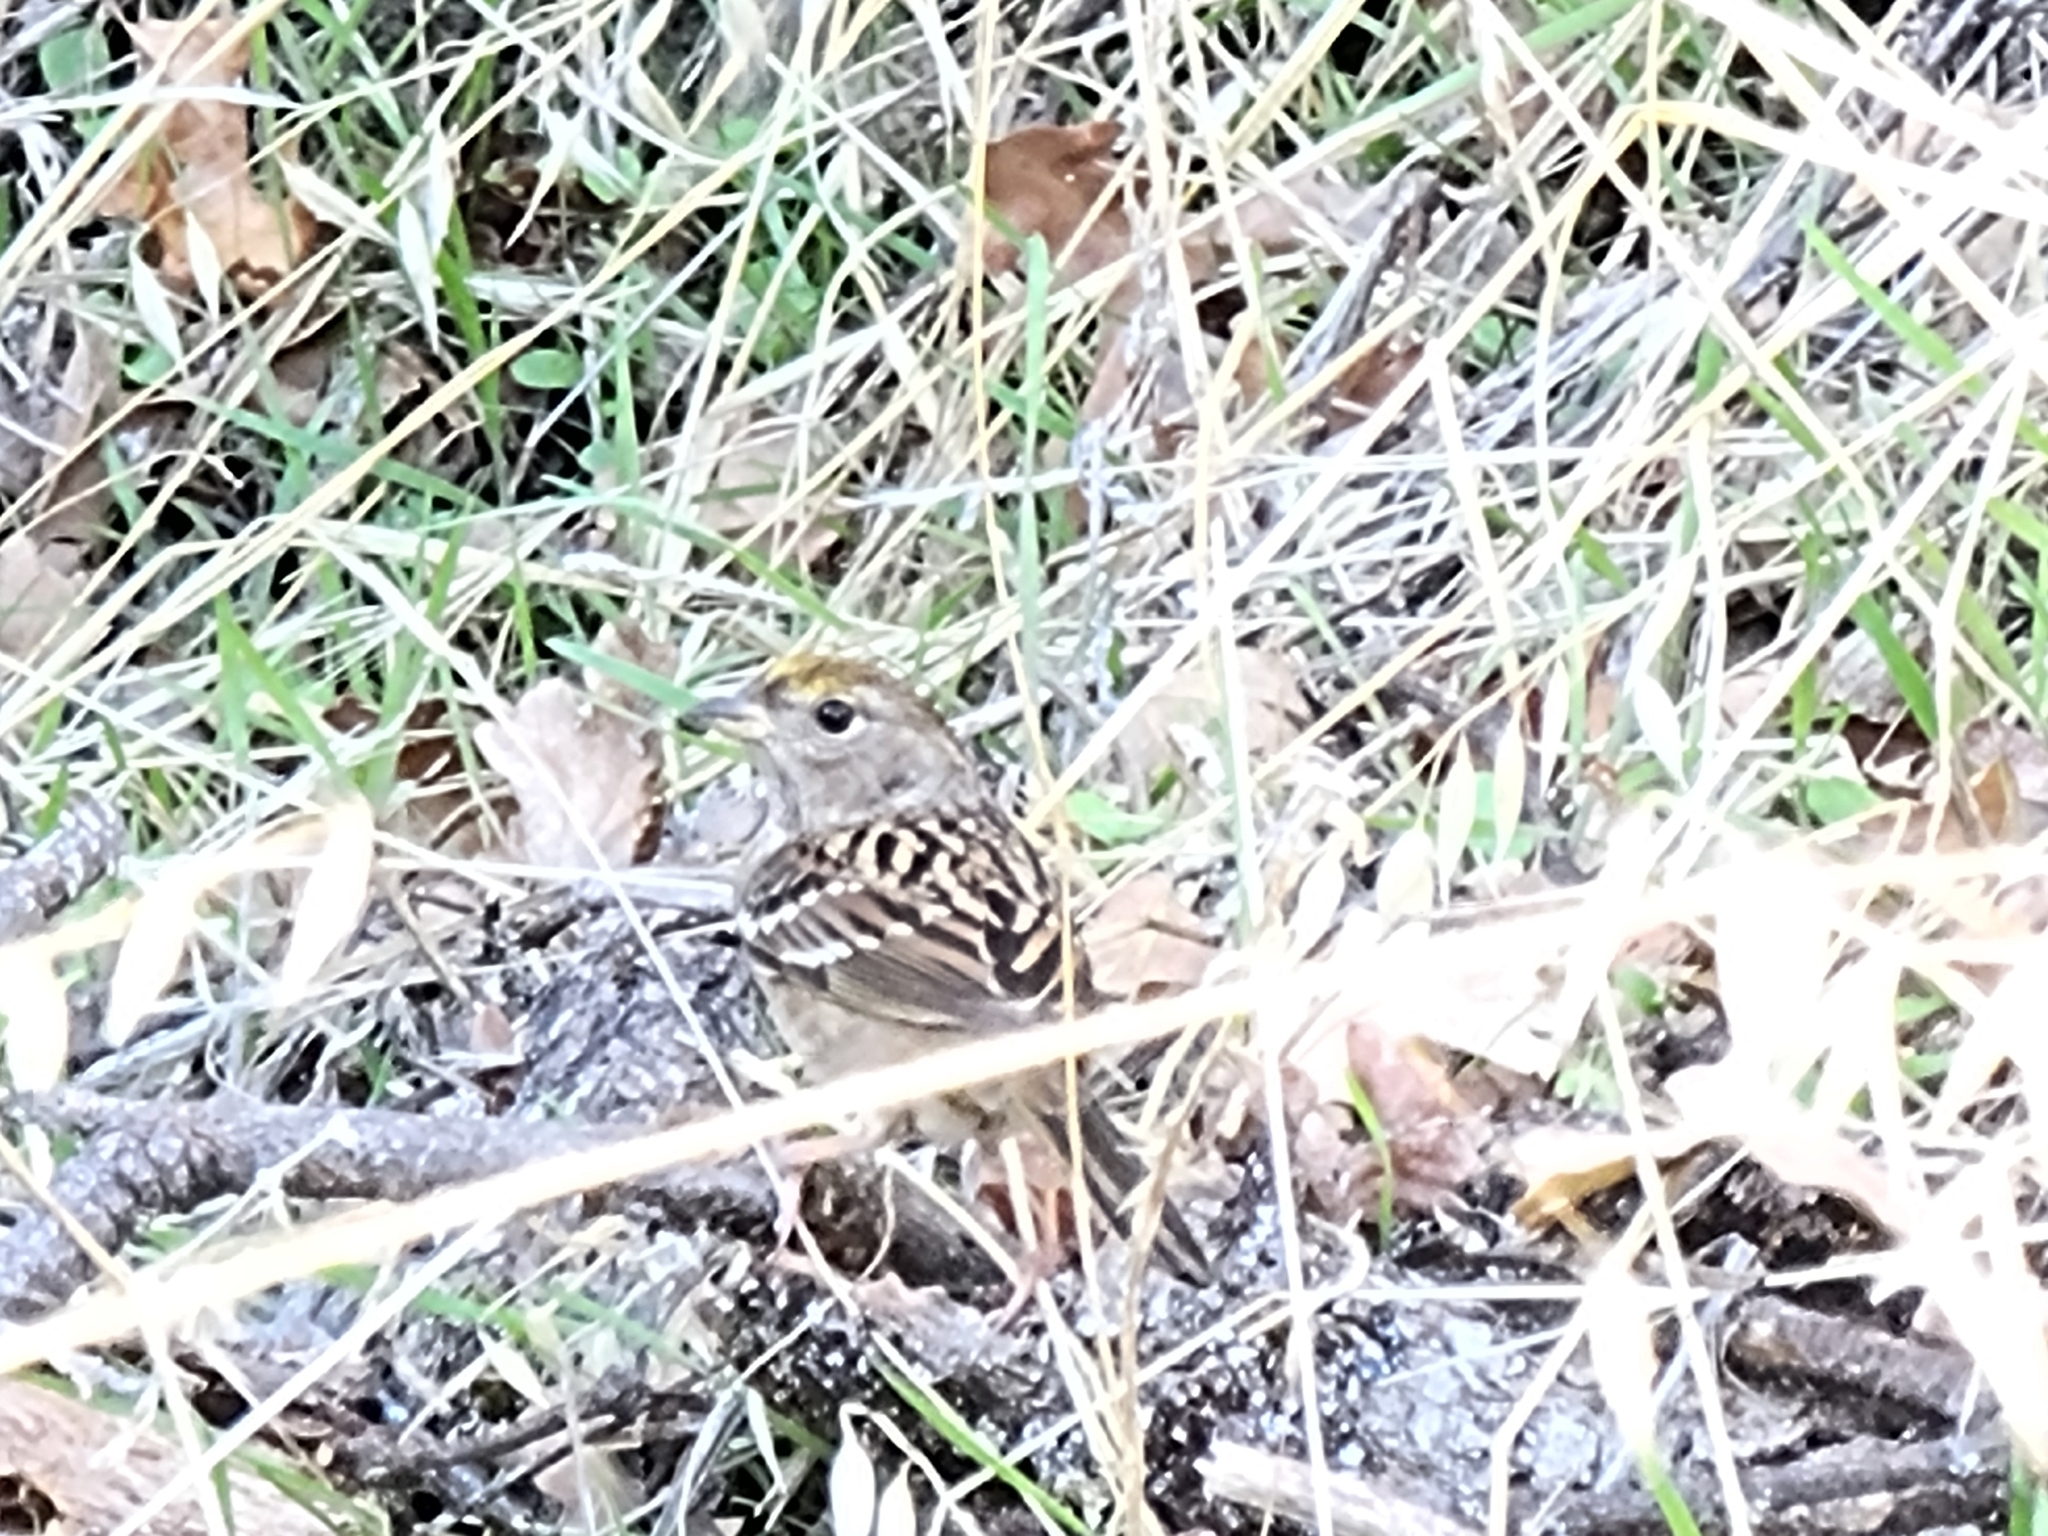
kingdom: Animalia
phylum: Chordata
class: Aves
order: Passeriformes
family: Passerellidae
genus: Zonotrichia
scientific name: Zonotrichia atricapilla
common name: Golden-crowned sparrow
